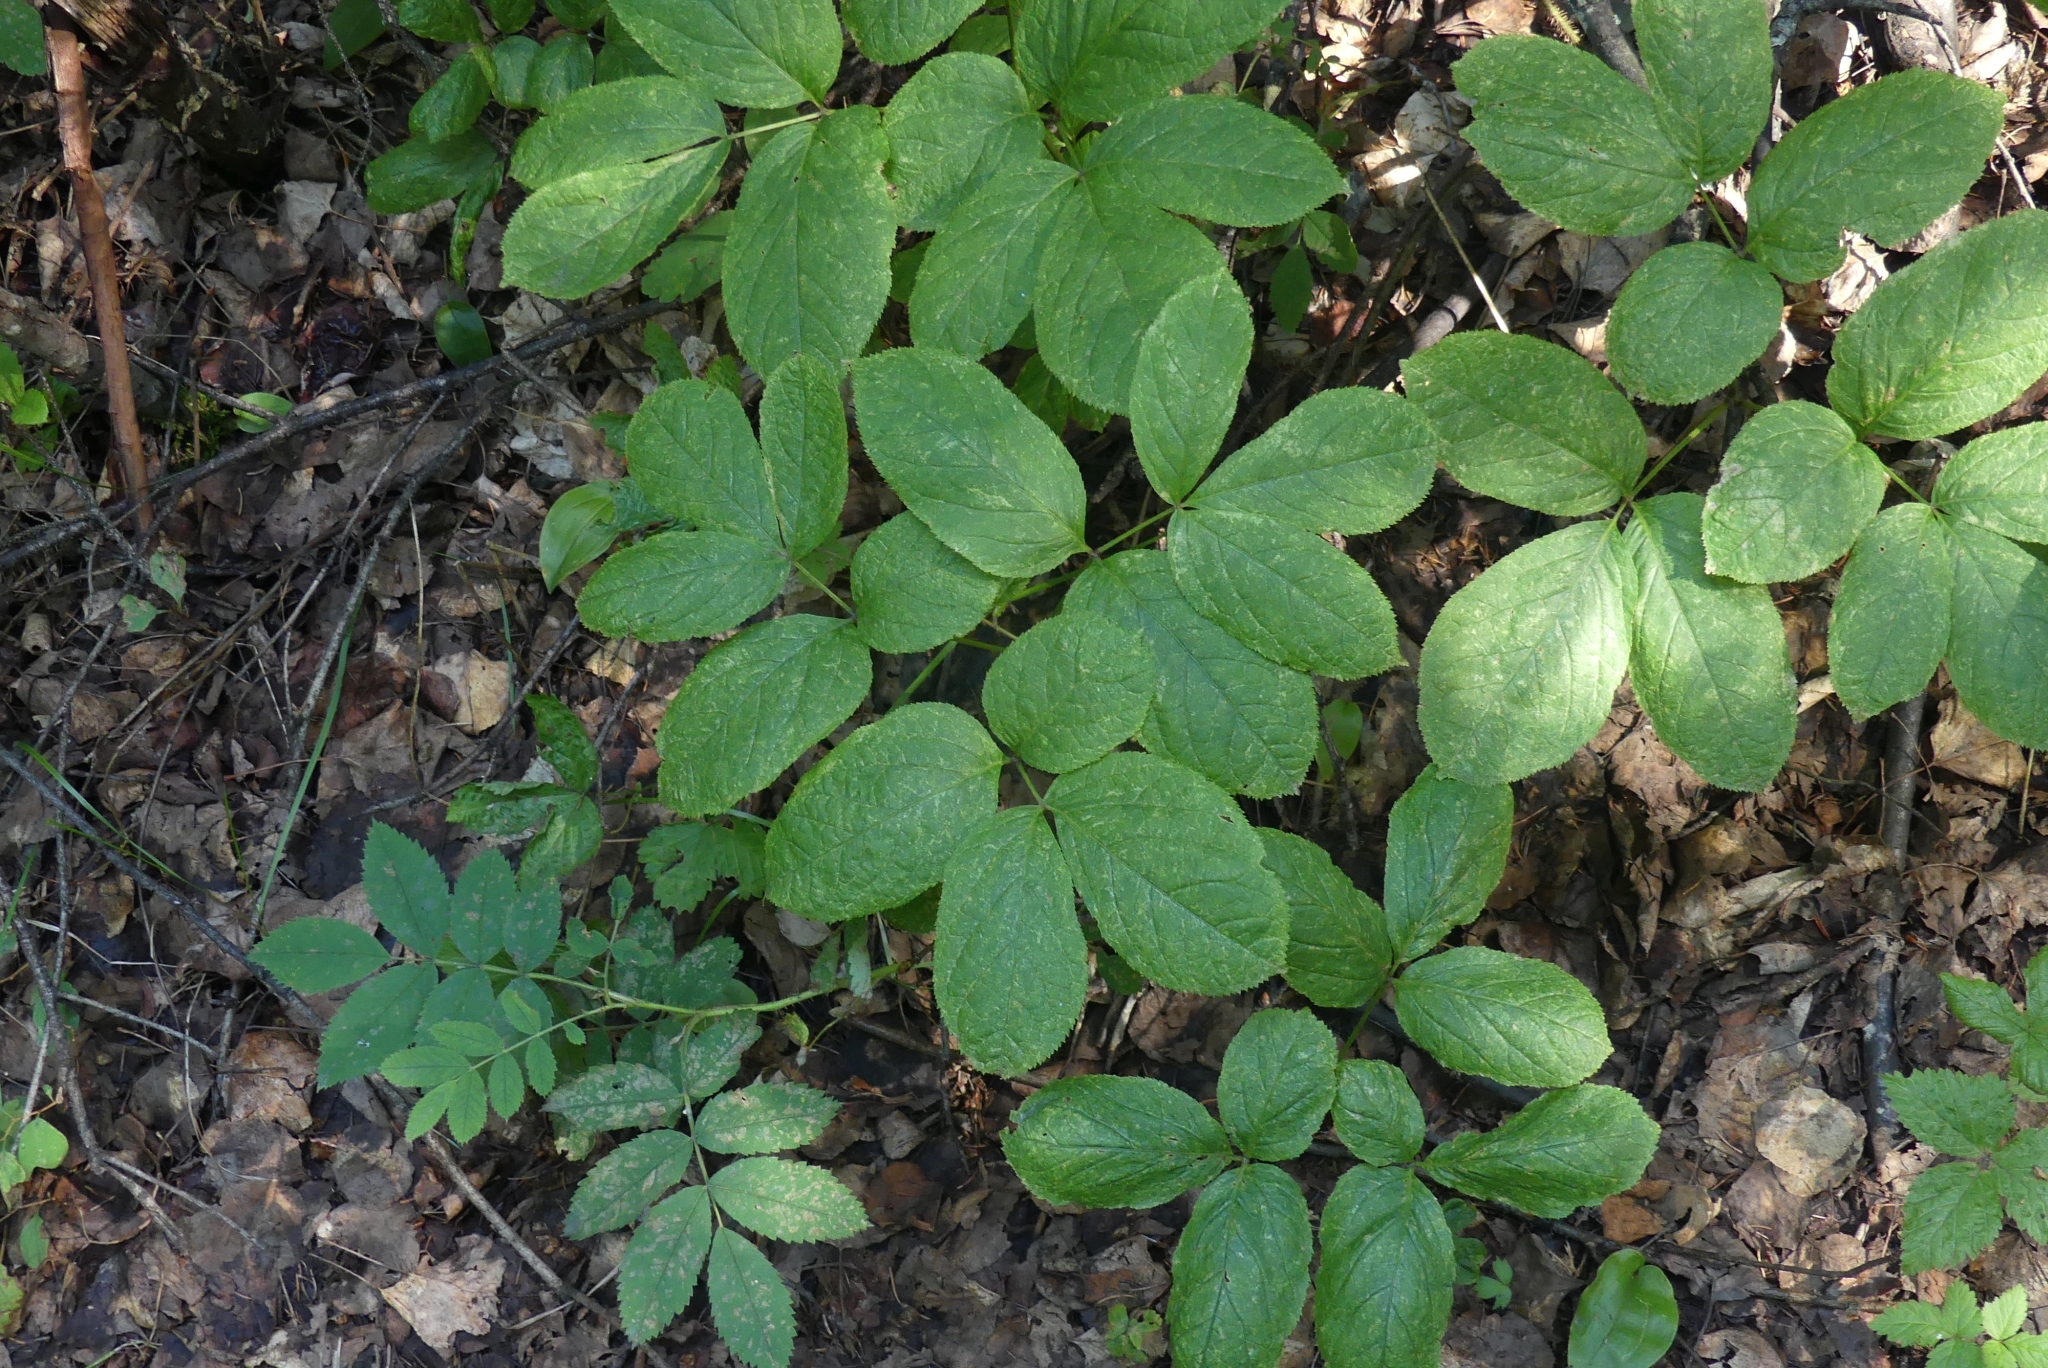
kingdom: Plantae
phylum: Tracheophyta
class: Magnoliopsida
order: Apiales
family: Araliaceae
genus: Aralia
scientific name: Aralia nudicaulis
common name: Wild sarsaparilla
